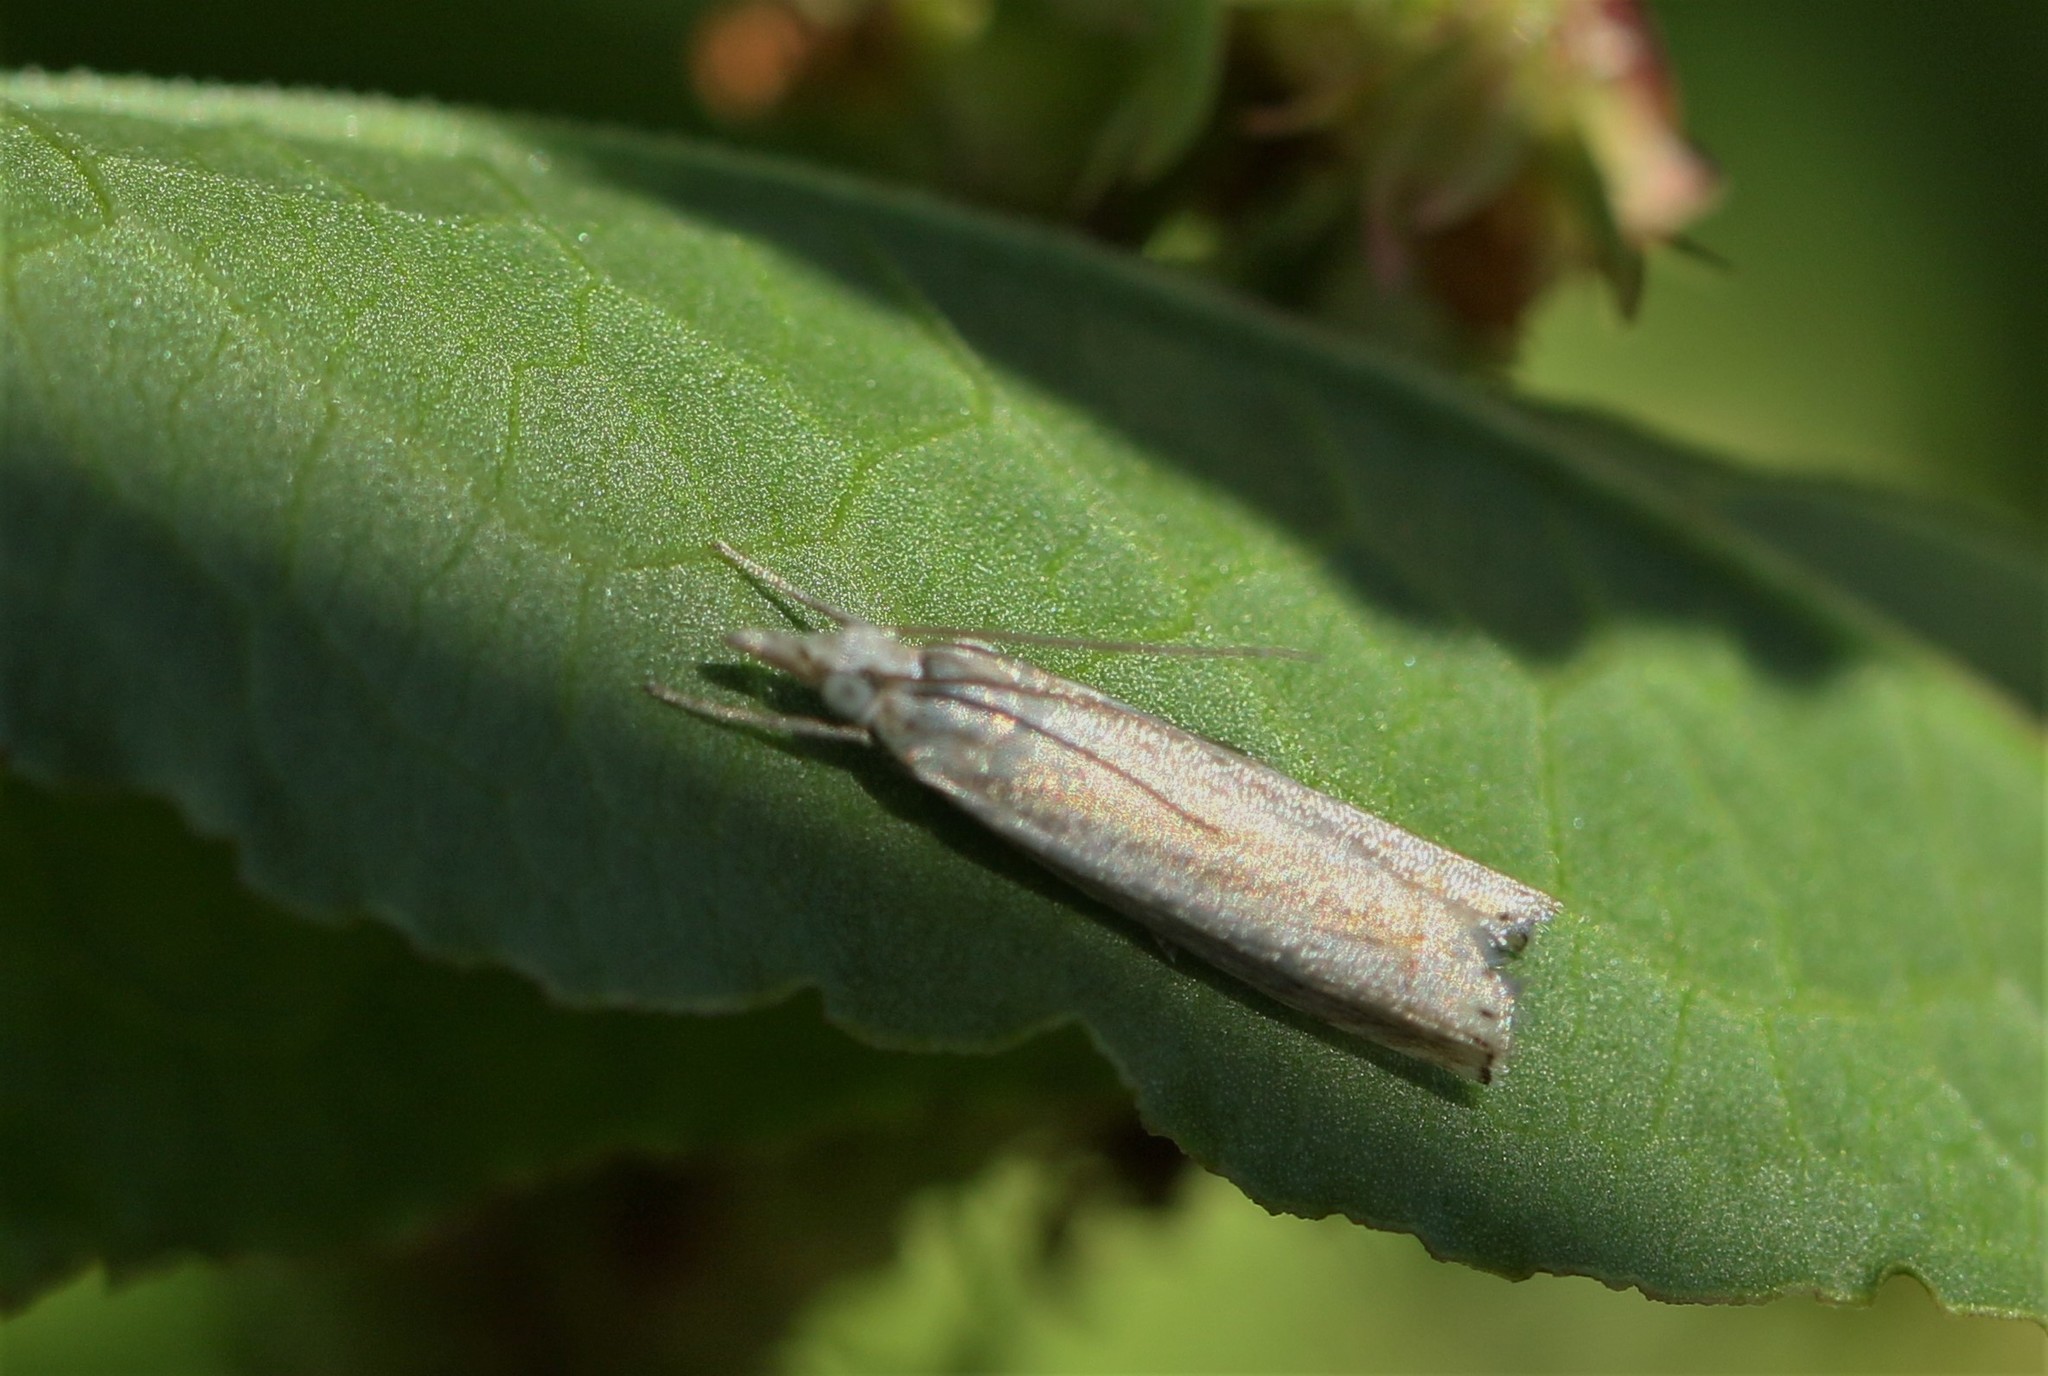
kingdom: Animalia
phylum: Arthropoda
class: Insecta
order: Lepidoptera
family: Crambidae
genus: Crambus
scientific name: Crambus
